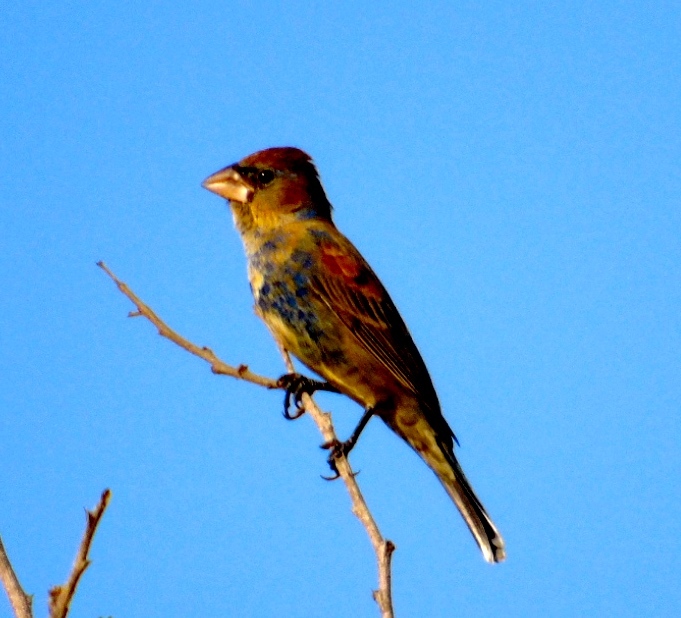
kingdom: Animalia
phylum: Chordata
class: Aves
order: Passeriformes
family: Cardinalidae
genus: Passerina
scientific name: Passerina caerulea
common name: Blue grosbeak
